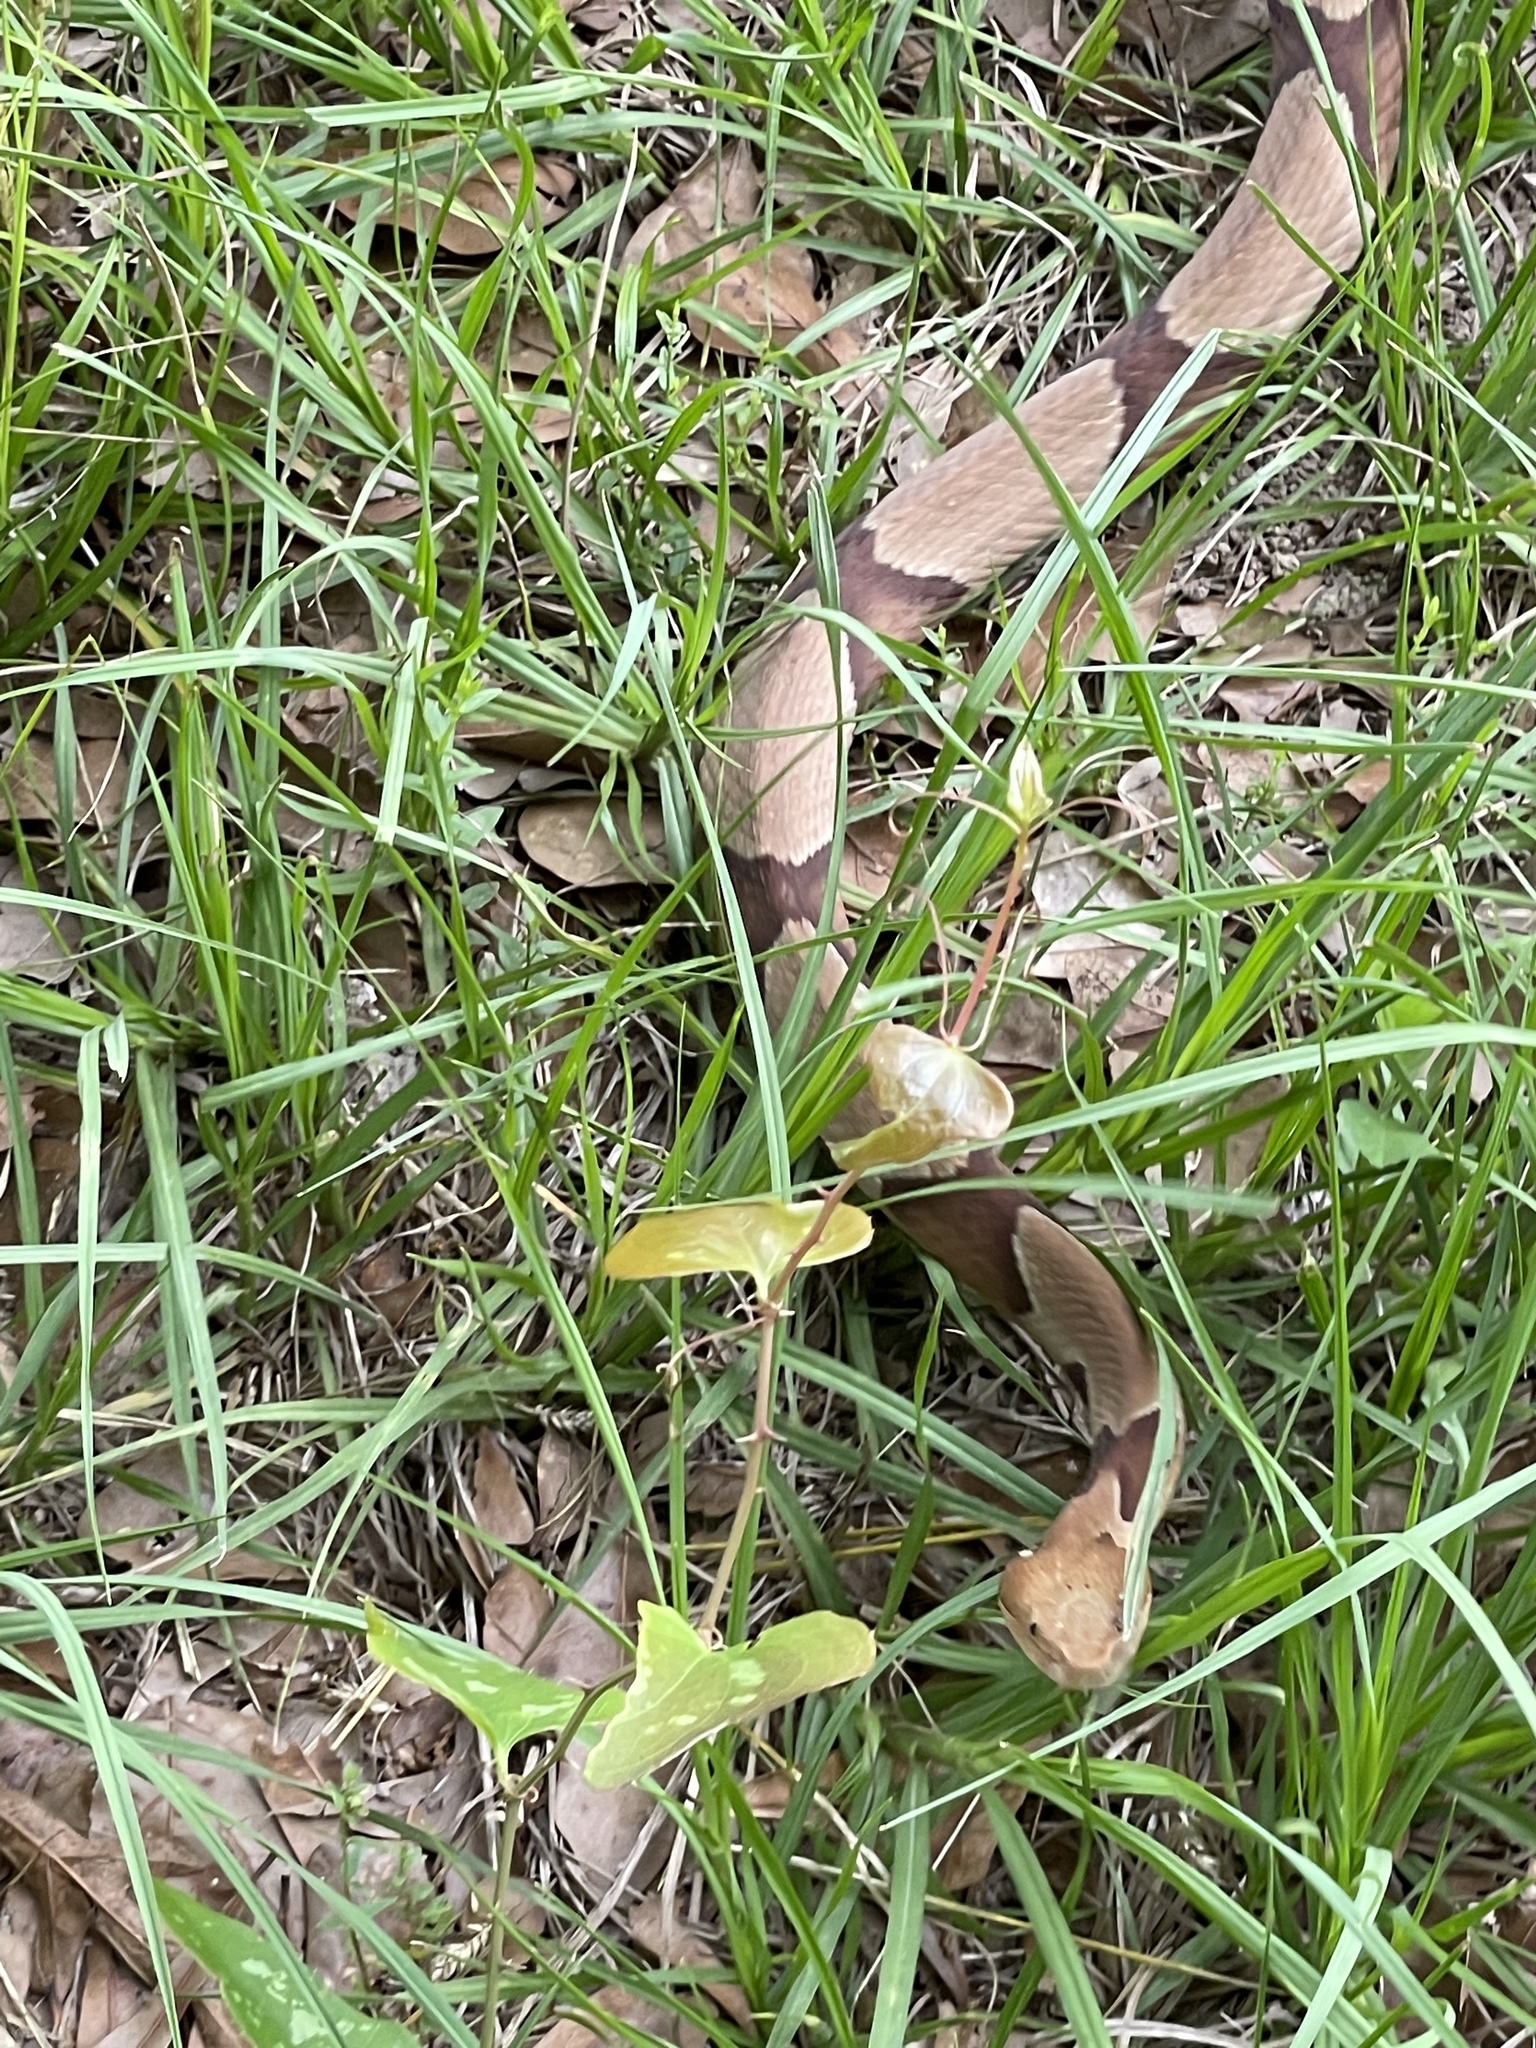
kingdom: Animalia
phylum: Chordata
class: Squamata
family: Viperidae
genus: Agkistrodon
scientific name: Agkistrodon contortrix
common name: Northern copperhead
